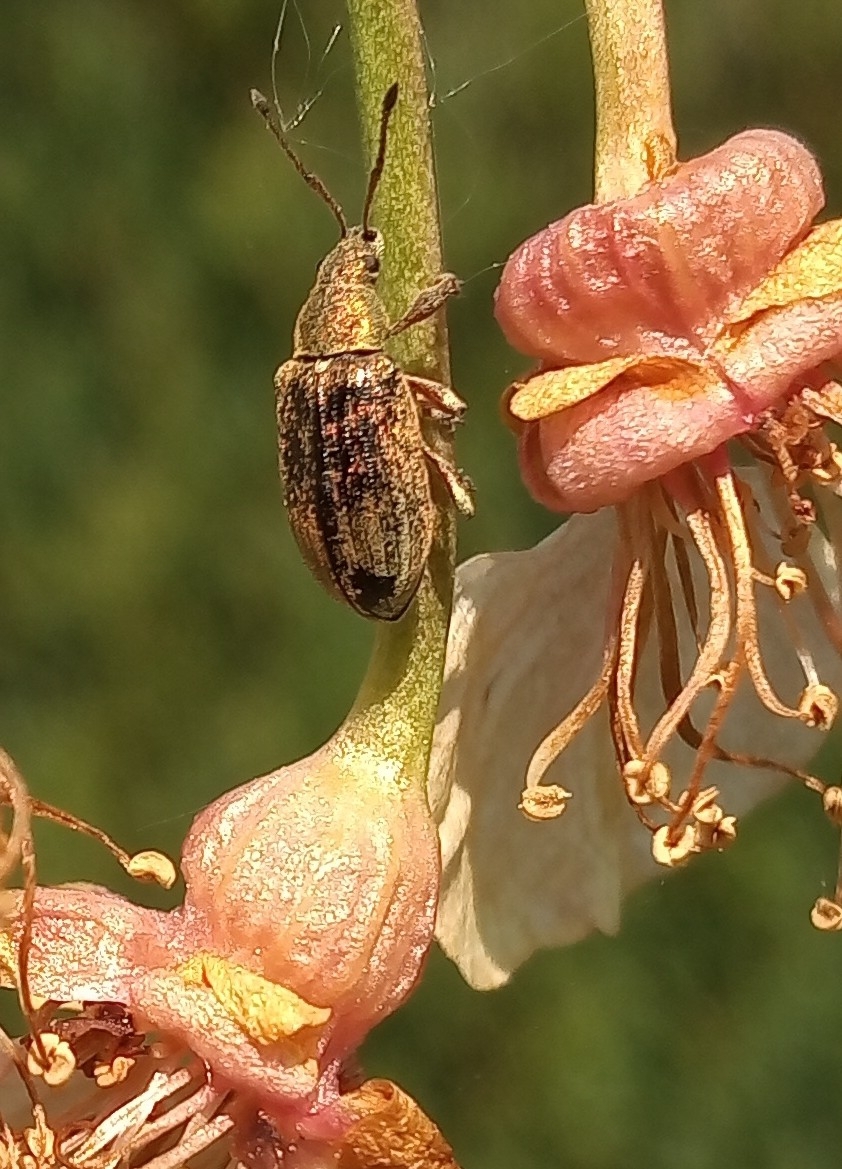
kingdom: Animalia
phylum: Arthropoda
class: Insecta
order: Coleoptera
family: Curculionidae
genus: Phyllobius
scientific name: Phyllobius pyri
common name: Common leaf weevil
